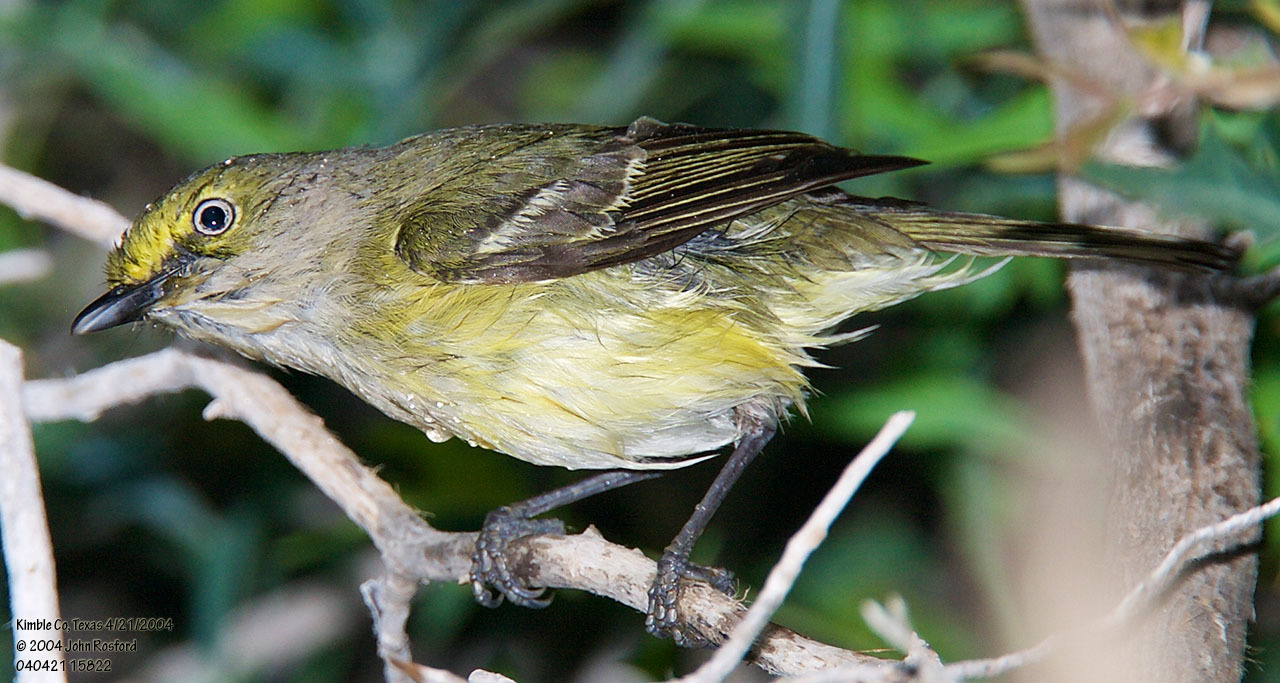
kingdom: Animalia
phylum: Chordata
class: Aves
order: Passeriformes
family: Vireonidae
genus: Vireo
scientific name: Vireo griseus
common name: White-eyed vireo
